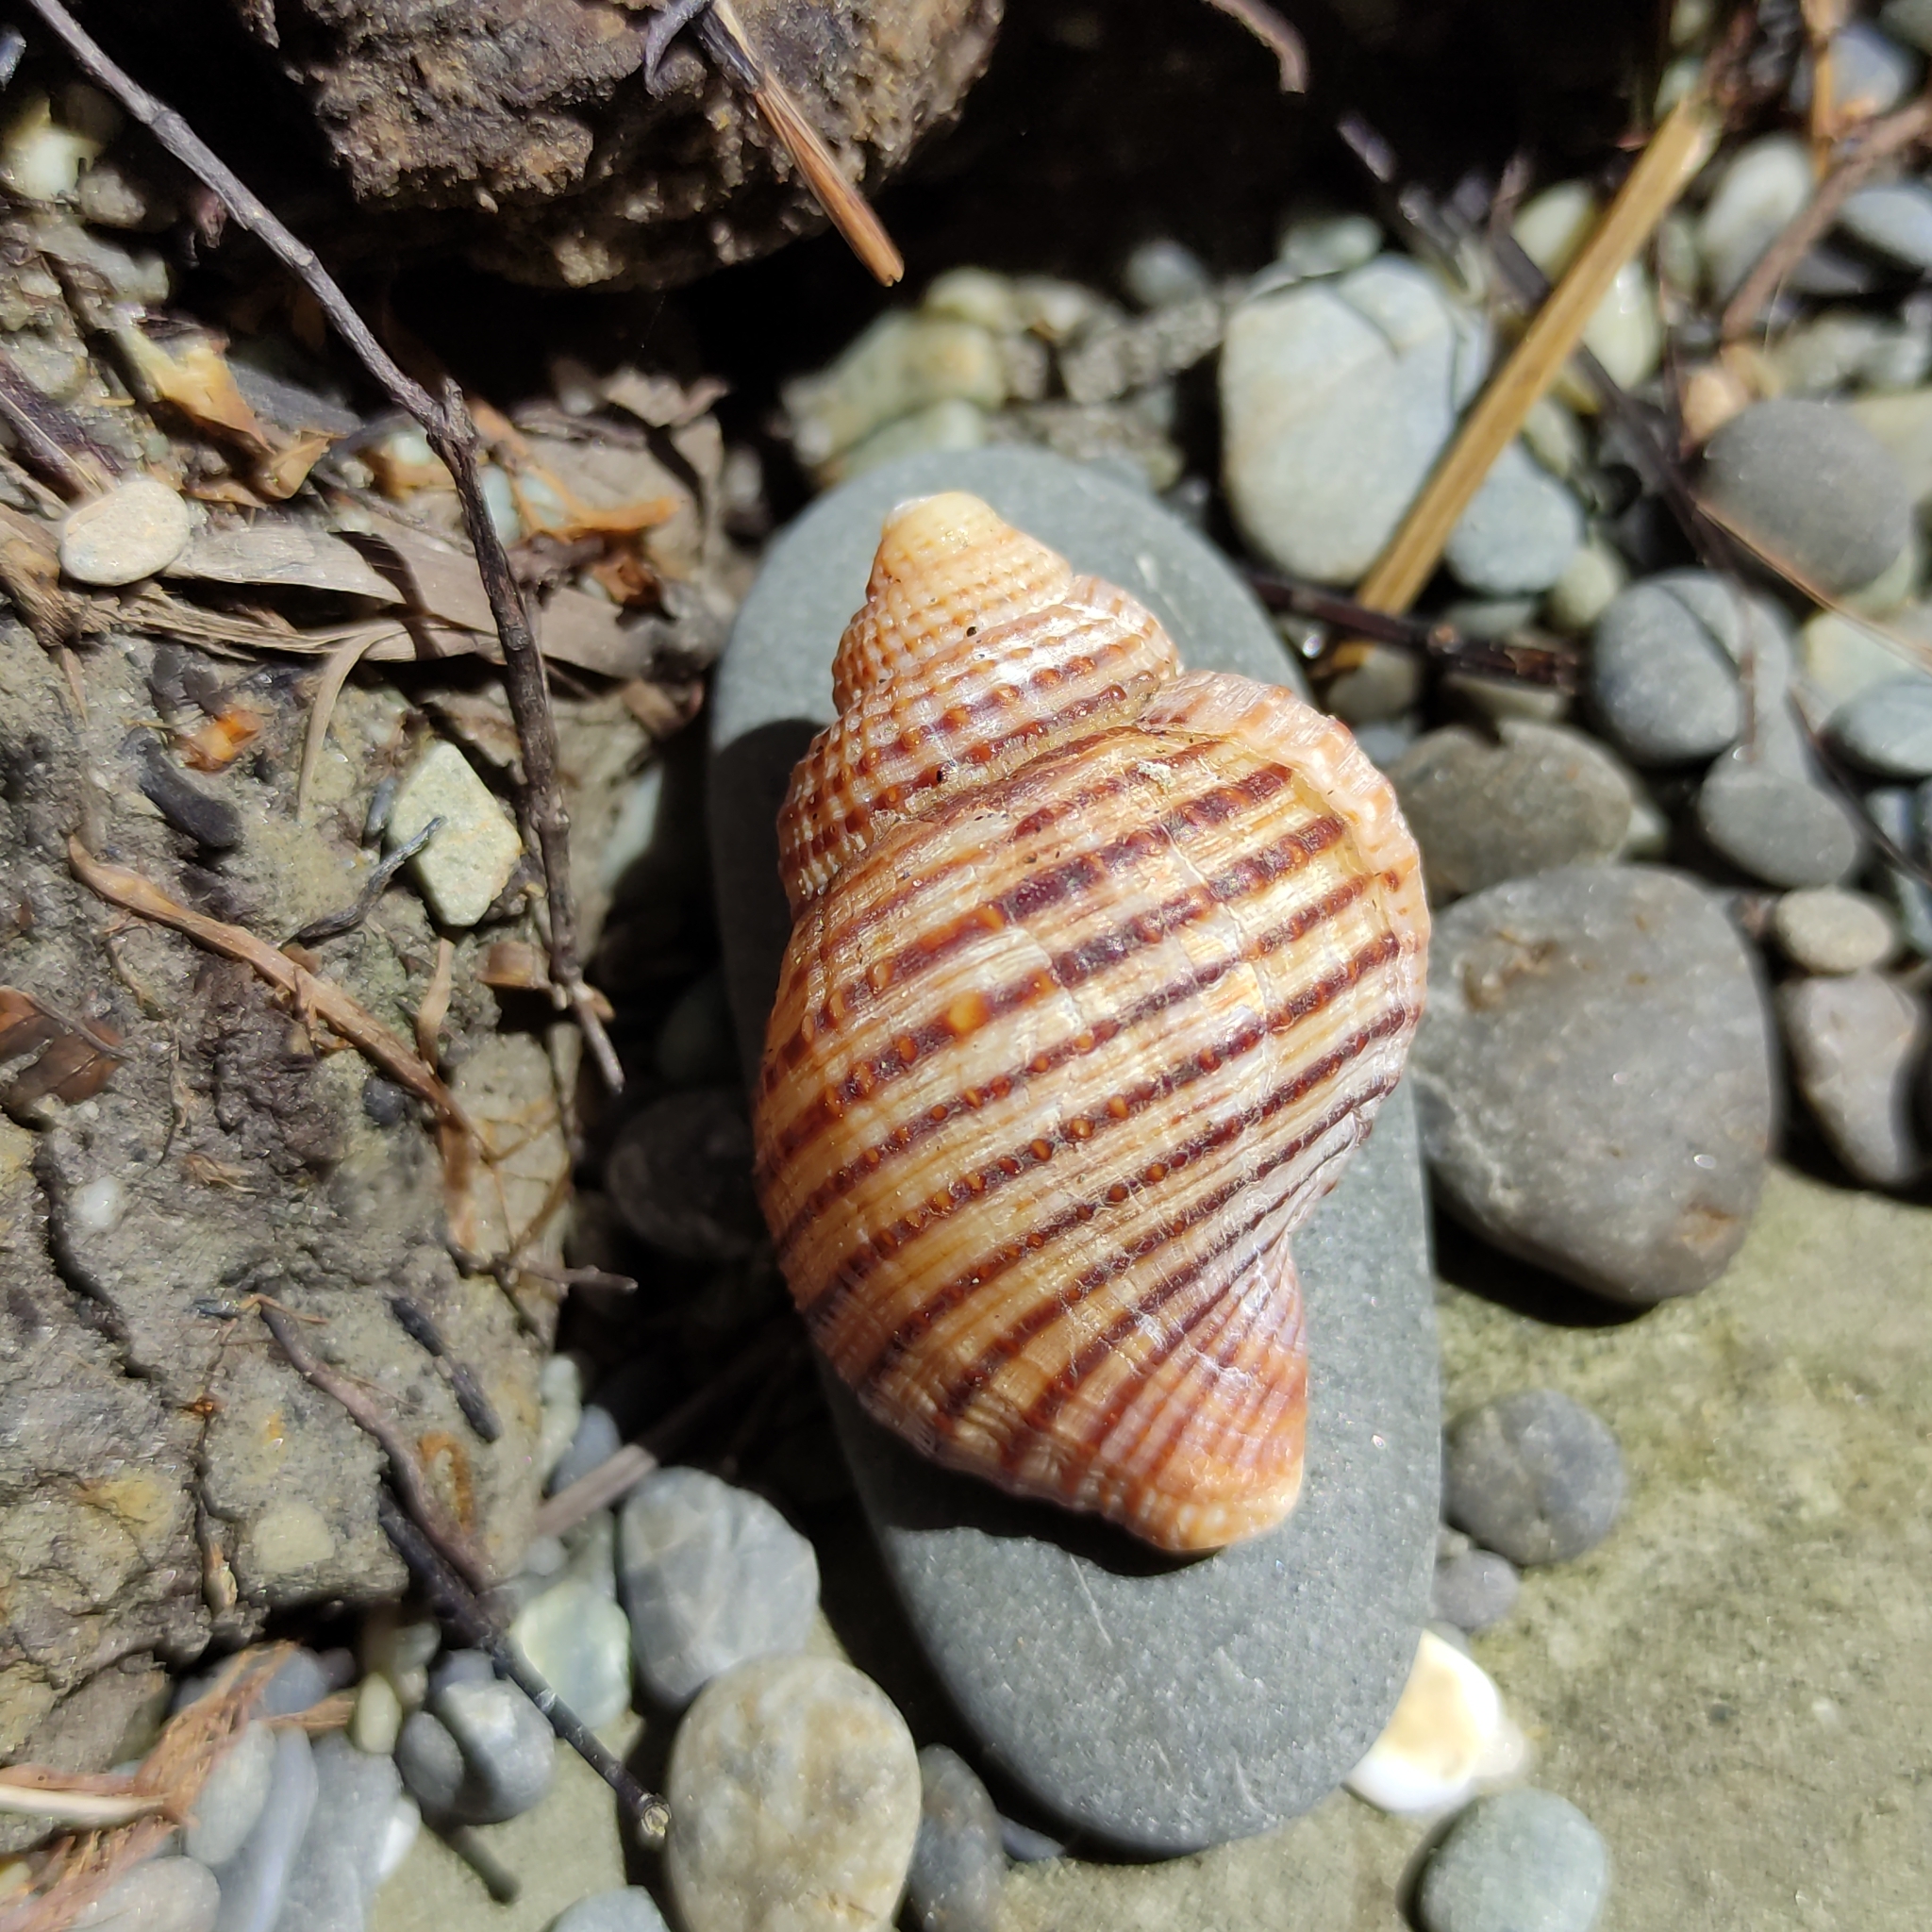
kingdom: Animalia
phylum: Mollusca
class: Gastropoda
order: Littorinimorpha
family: Cymatiidae
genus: Argobuccinum
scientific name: Argobuccinum pustulosum
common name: Pustular triton
